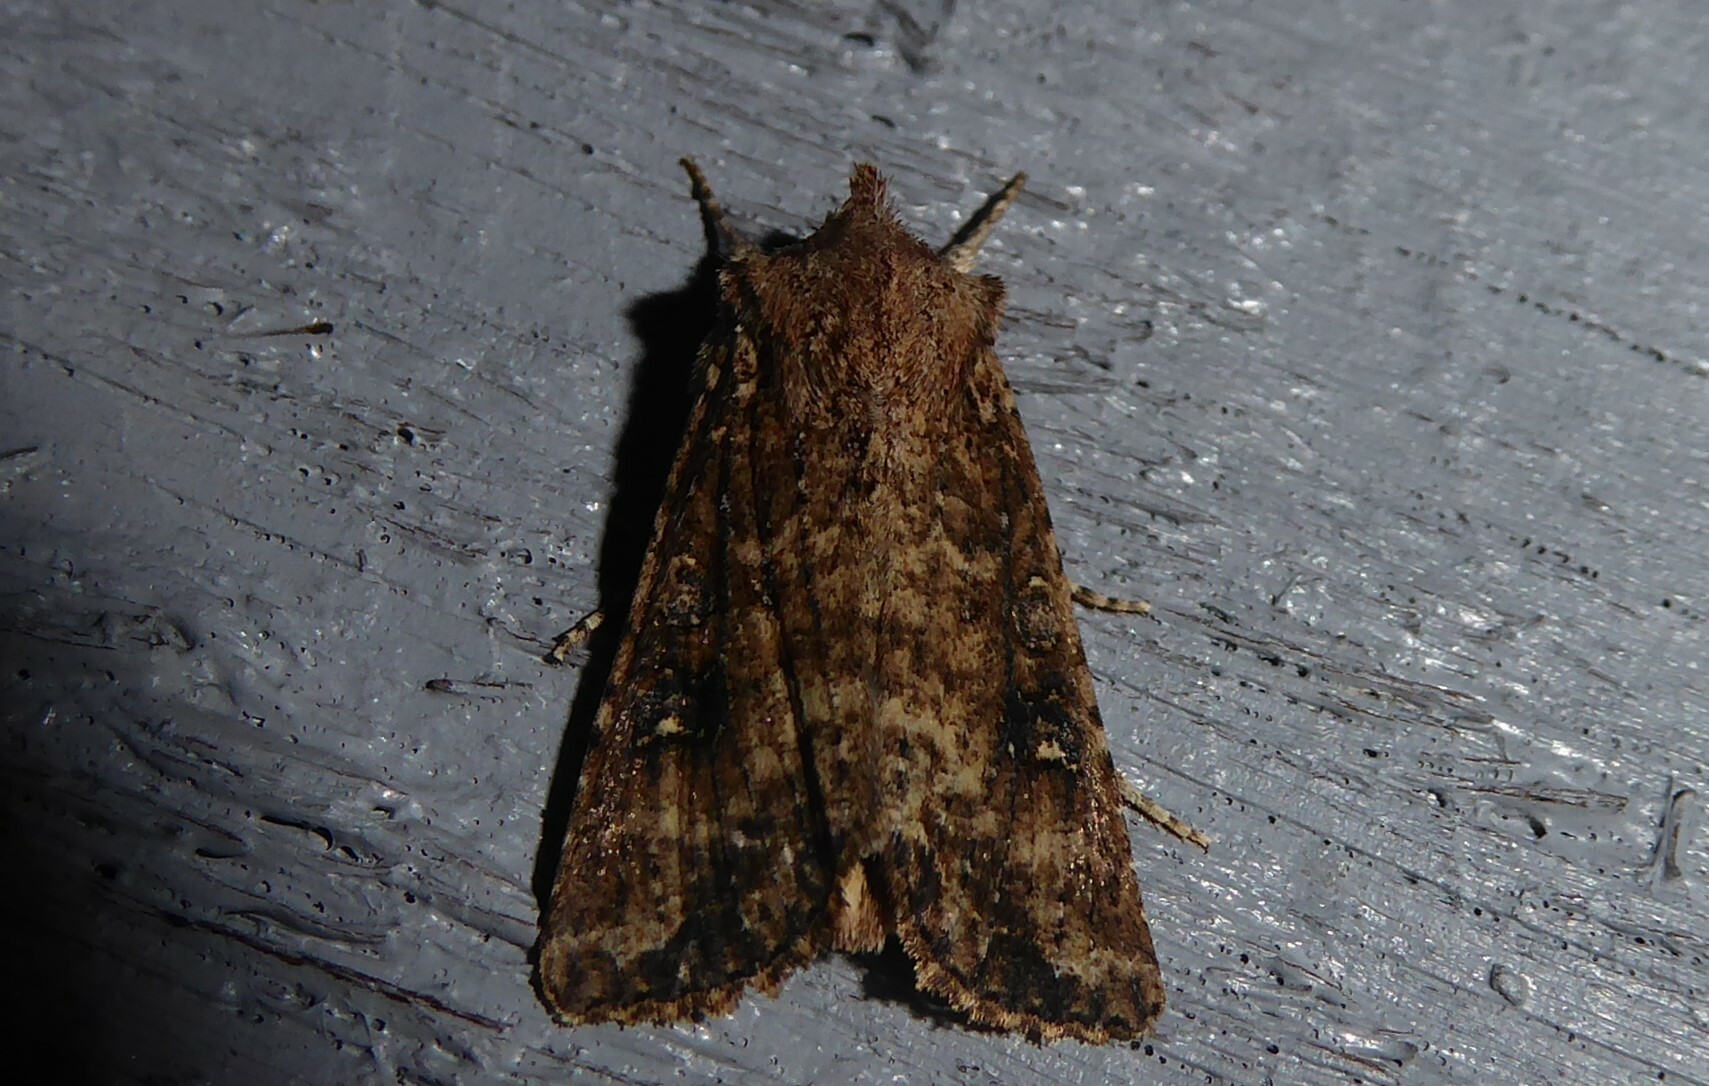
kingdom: Animalia
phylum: Arthropoda
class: Insecta
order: Lepidoptera
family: Noctuidae
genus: Ichneutica
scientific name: Ichneutica morosa
